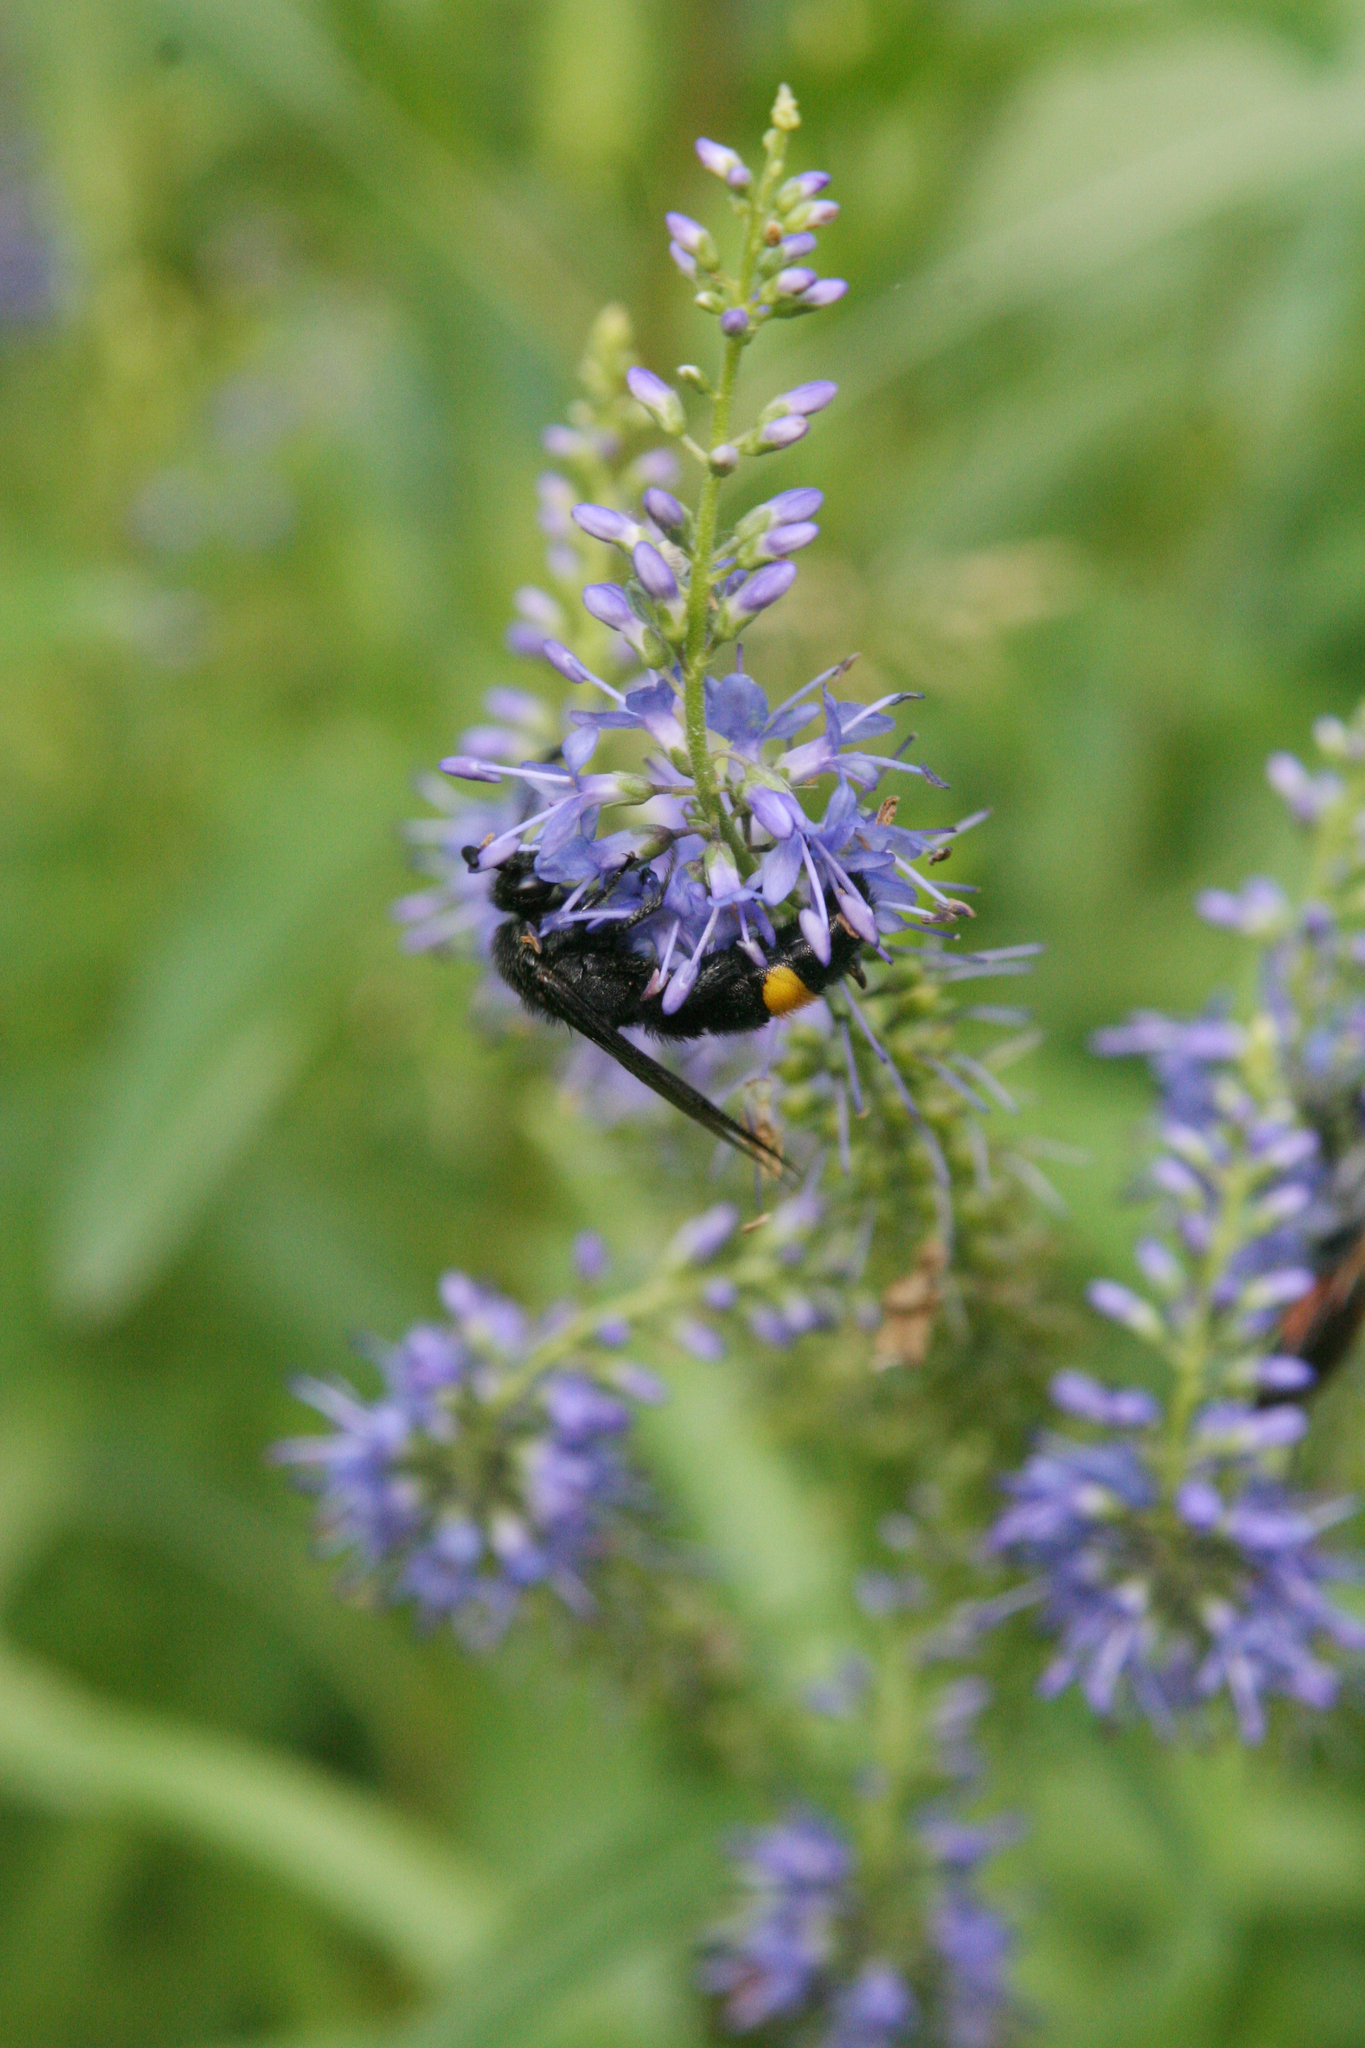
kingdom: Plantae
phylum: Tracheophyta
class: Magnoliopsida
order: Lamiales
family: Plantaginaceae
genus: Veronica
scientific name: Veronica pinnata
